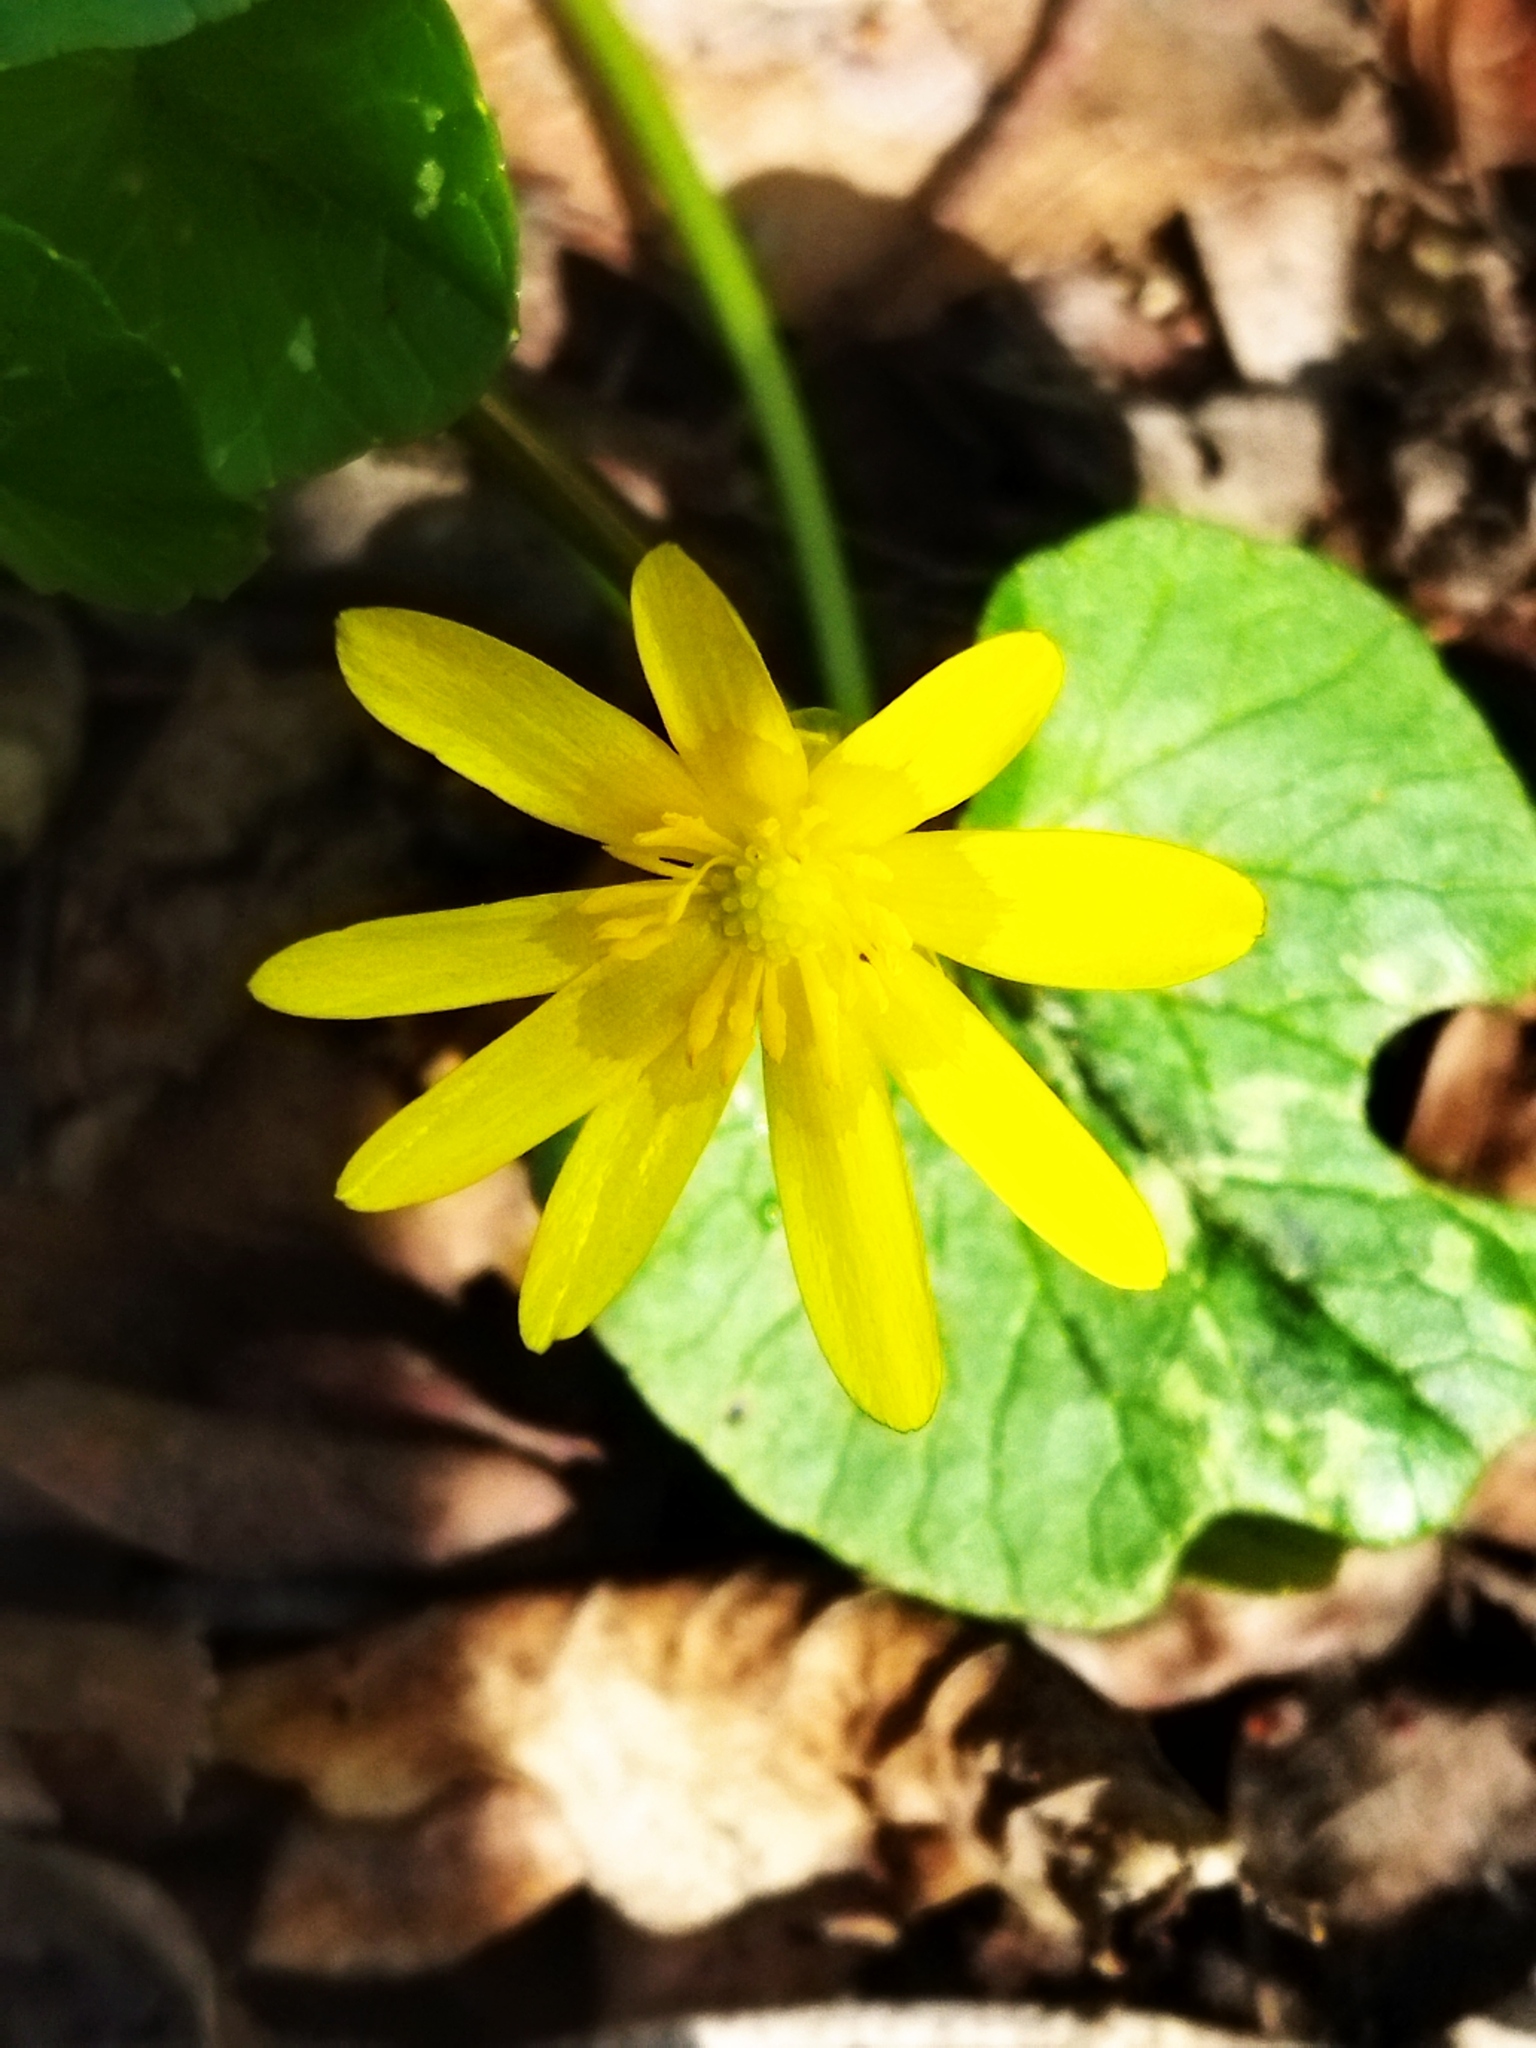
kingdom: Plantae
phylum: Tracheophyta
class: Magnoliopsida
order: Ranunculales
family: Ranunculaceae
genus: Ficaria
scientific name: Ficaria verna
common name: Lesser celandine
